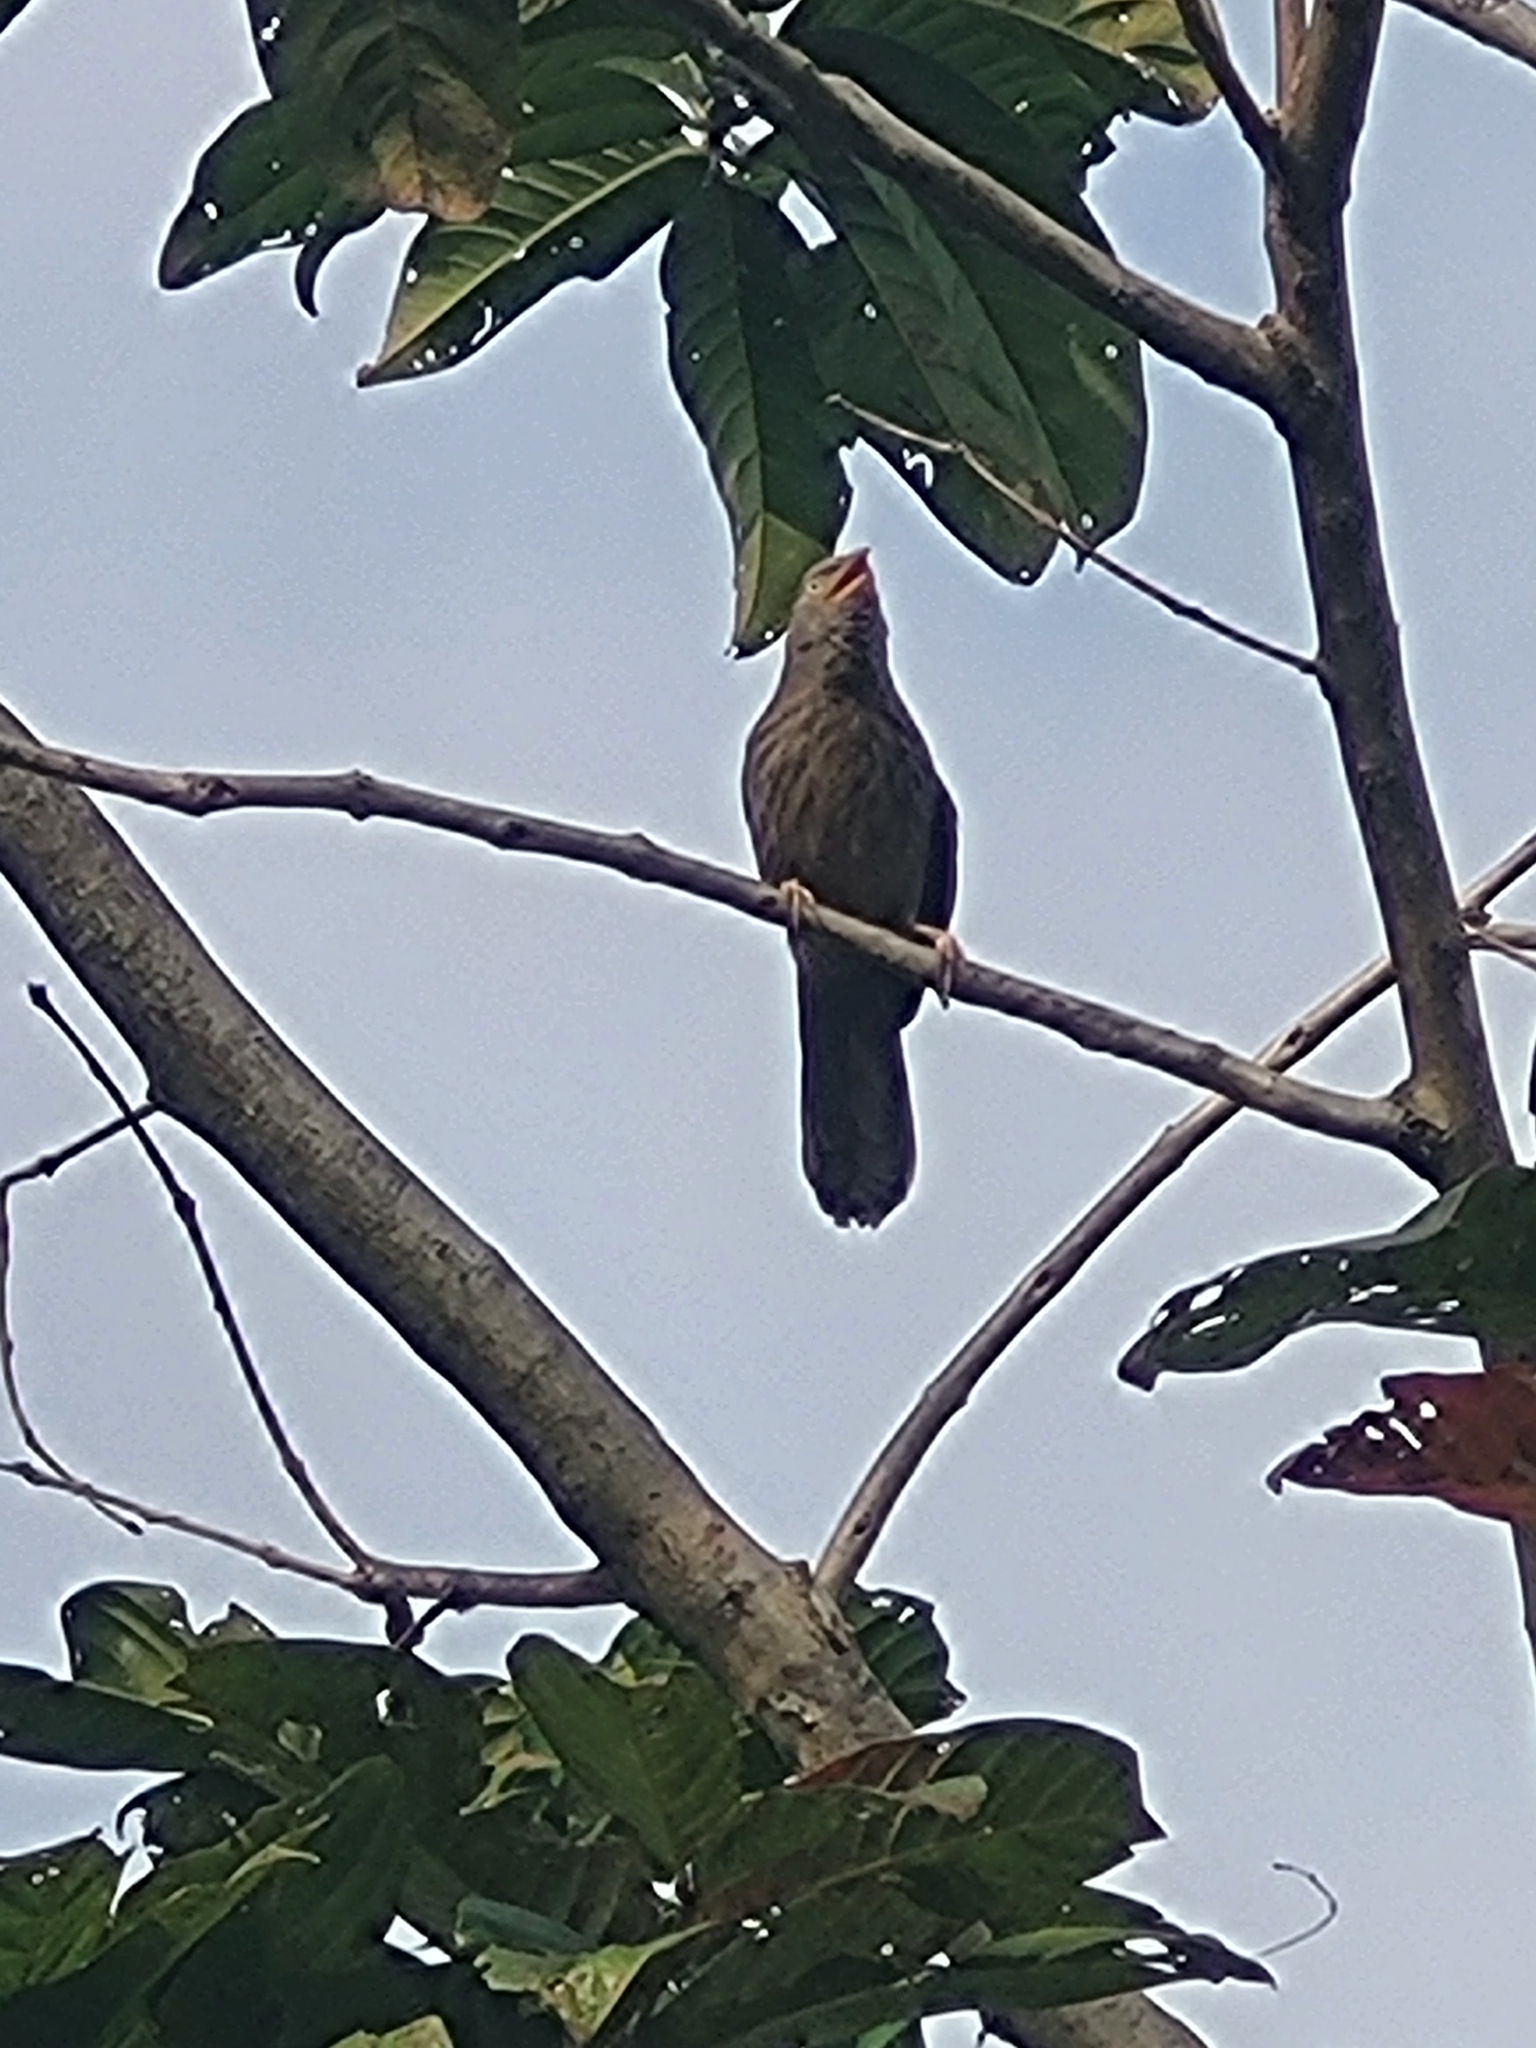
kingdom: Animalia
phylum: Chordata
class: Aves
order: Passeriformes
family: Leiothrichidae
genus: Turdoides
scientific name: Turdoides striata
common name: Jungle babbler
